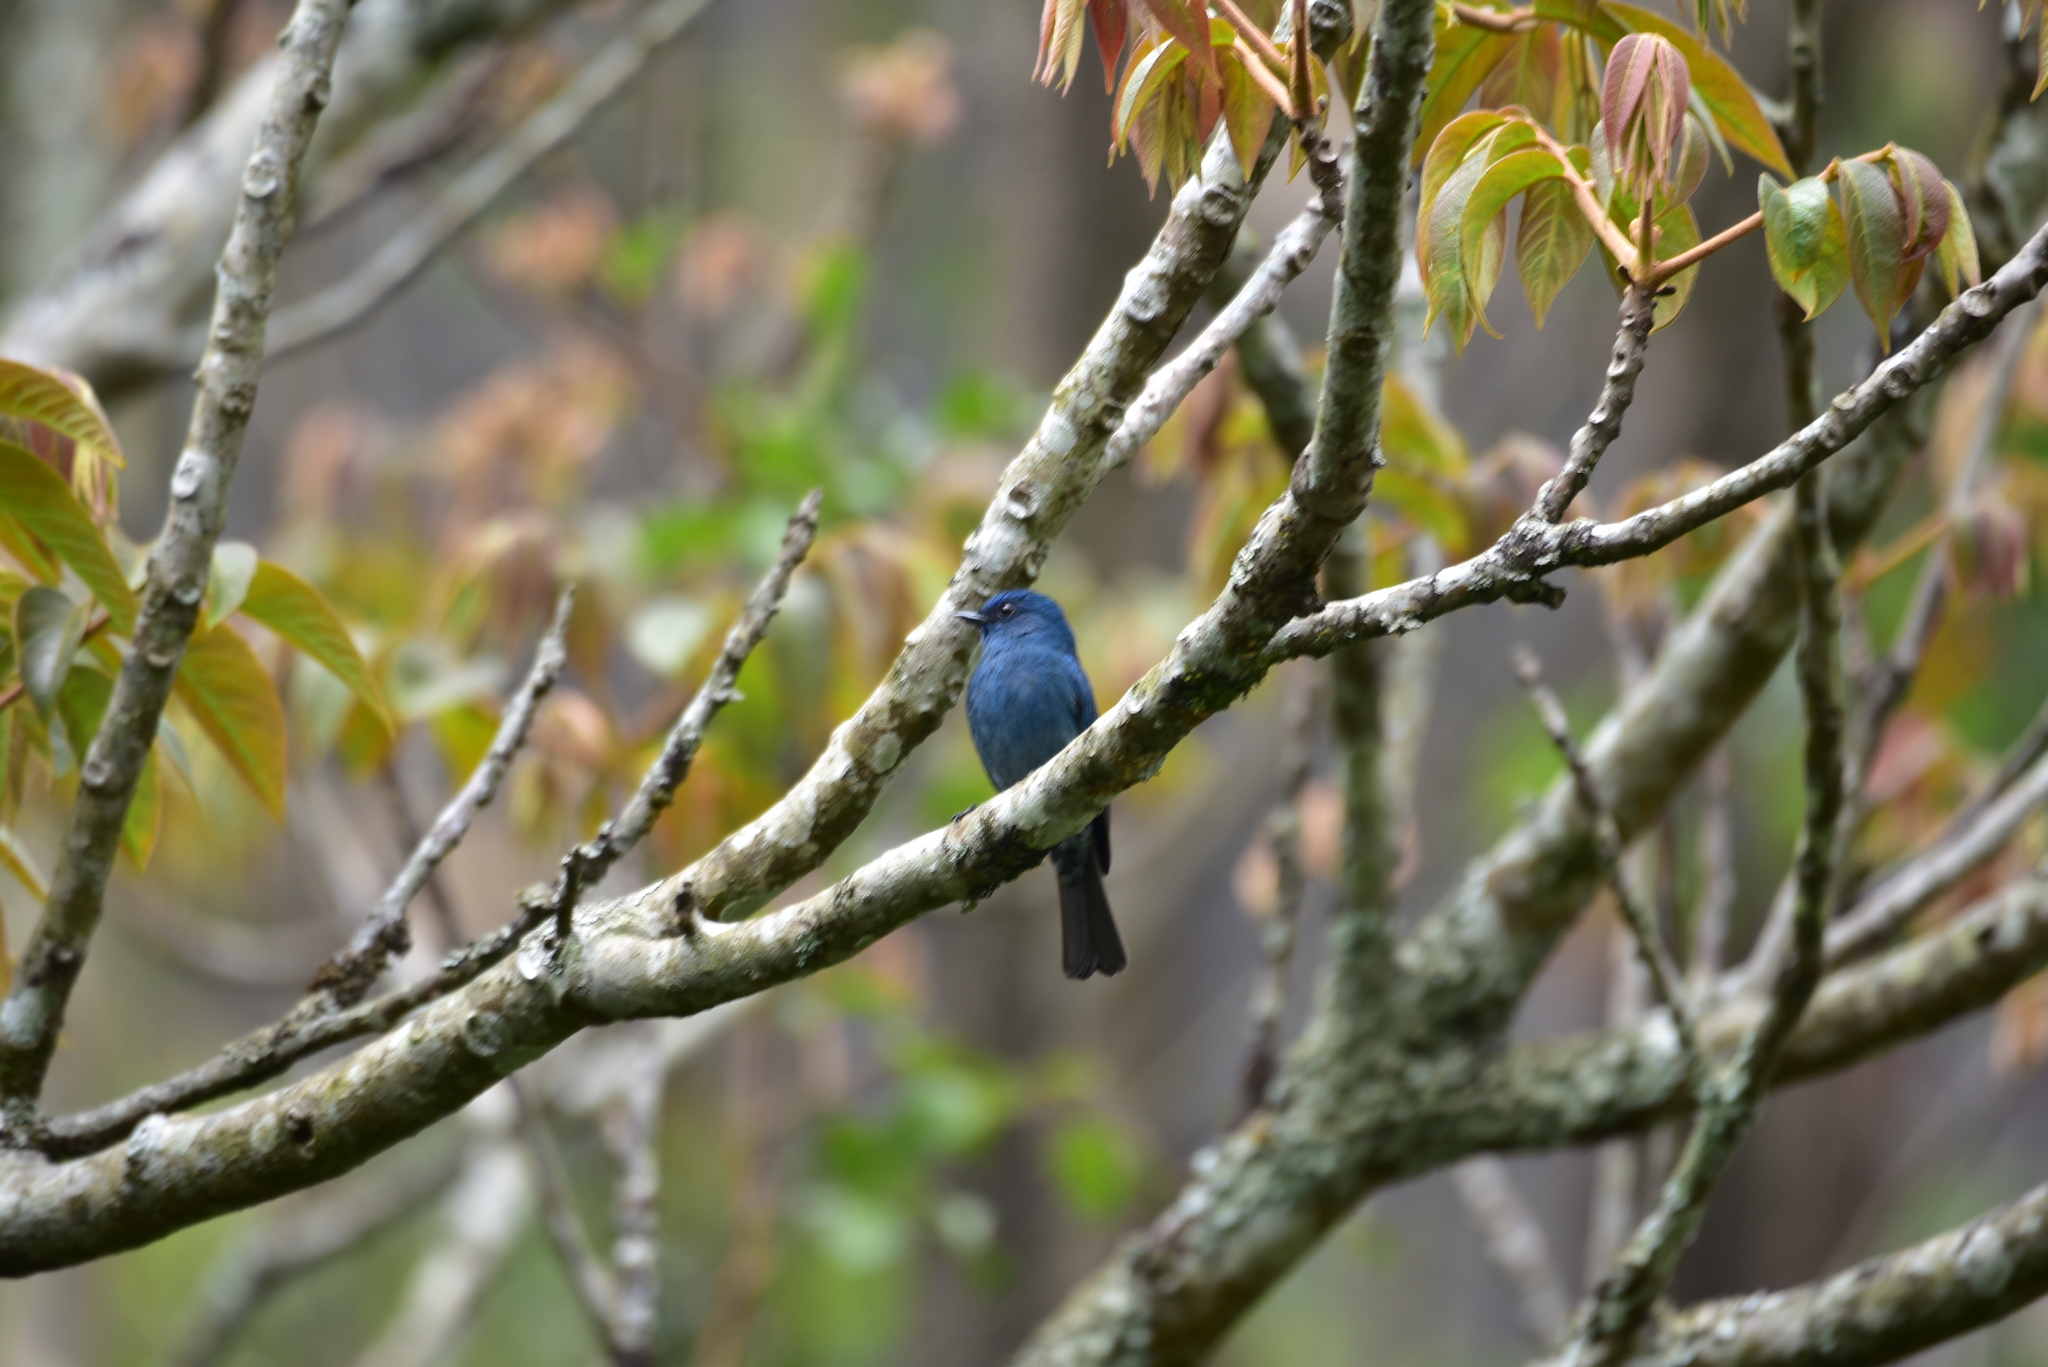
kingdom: Animalia
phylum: Chordata
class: Aves
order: Passeriformes
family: Muscicapidae
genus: Eumyias
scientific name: Eumyias albicaudatus
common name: Nilgiri flycatcher
